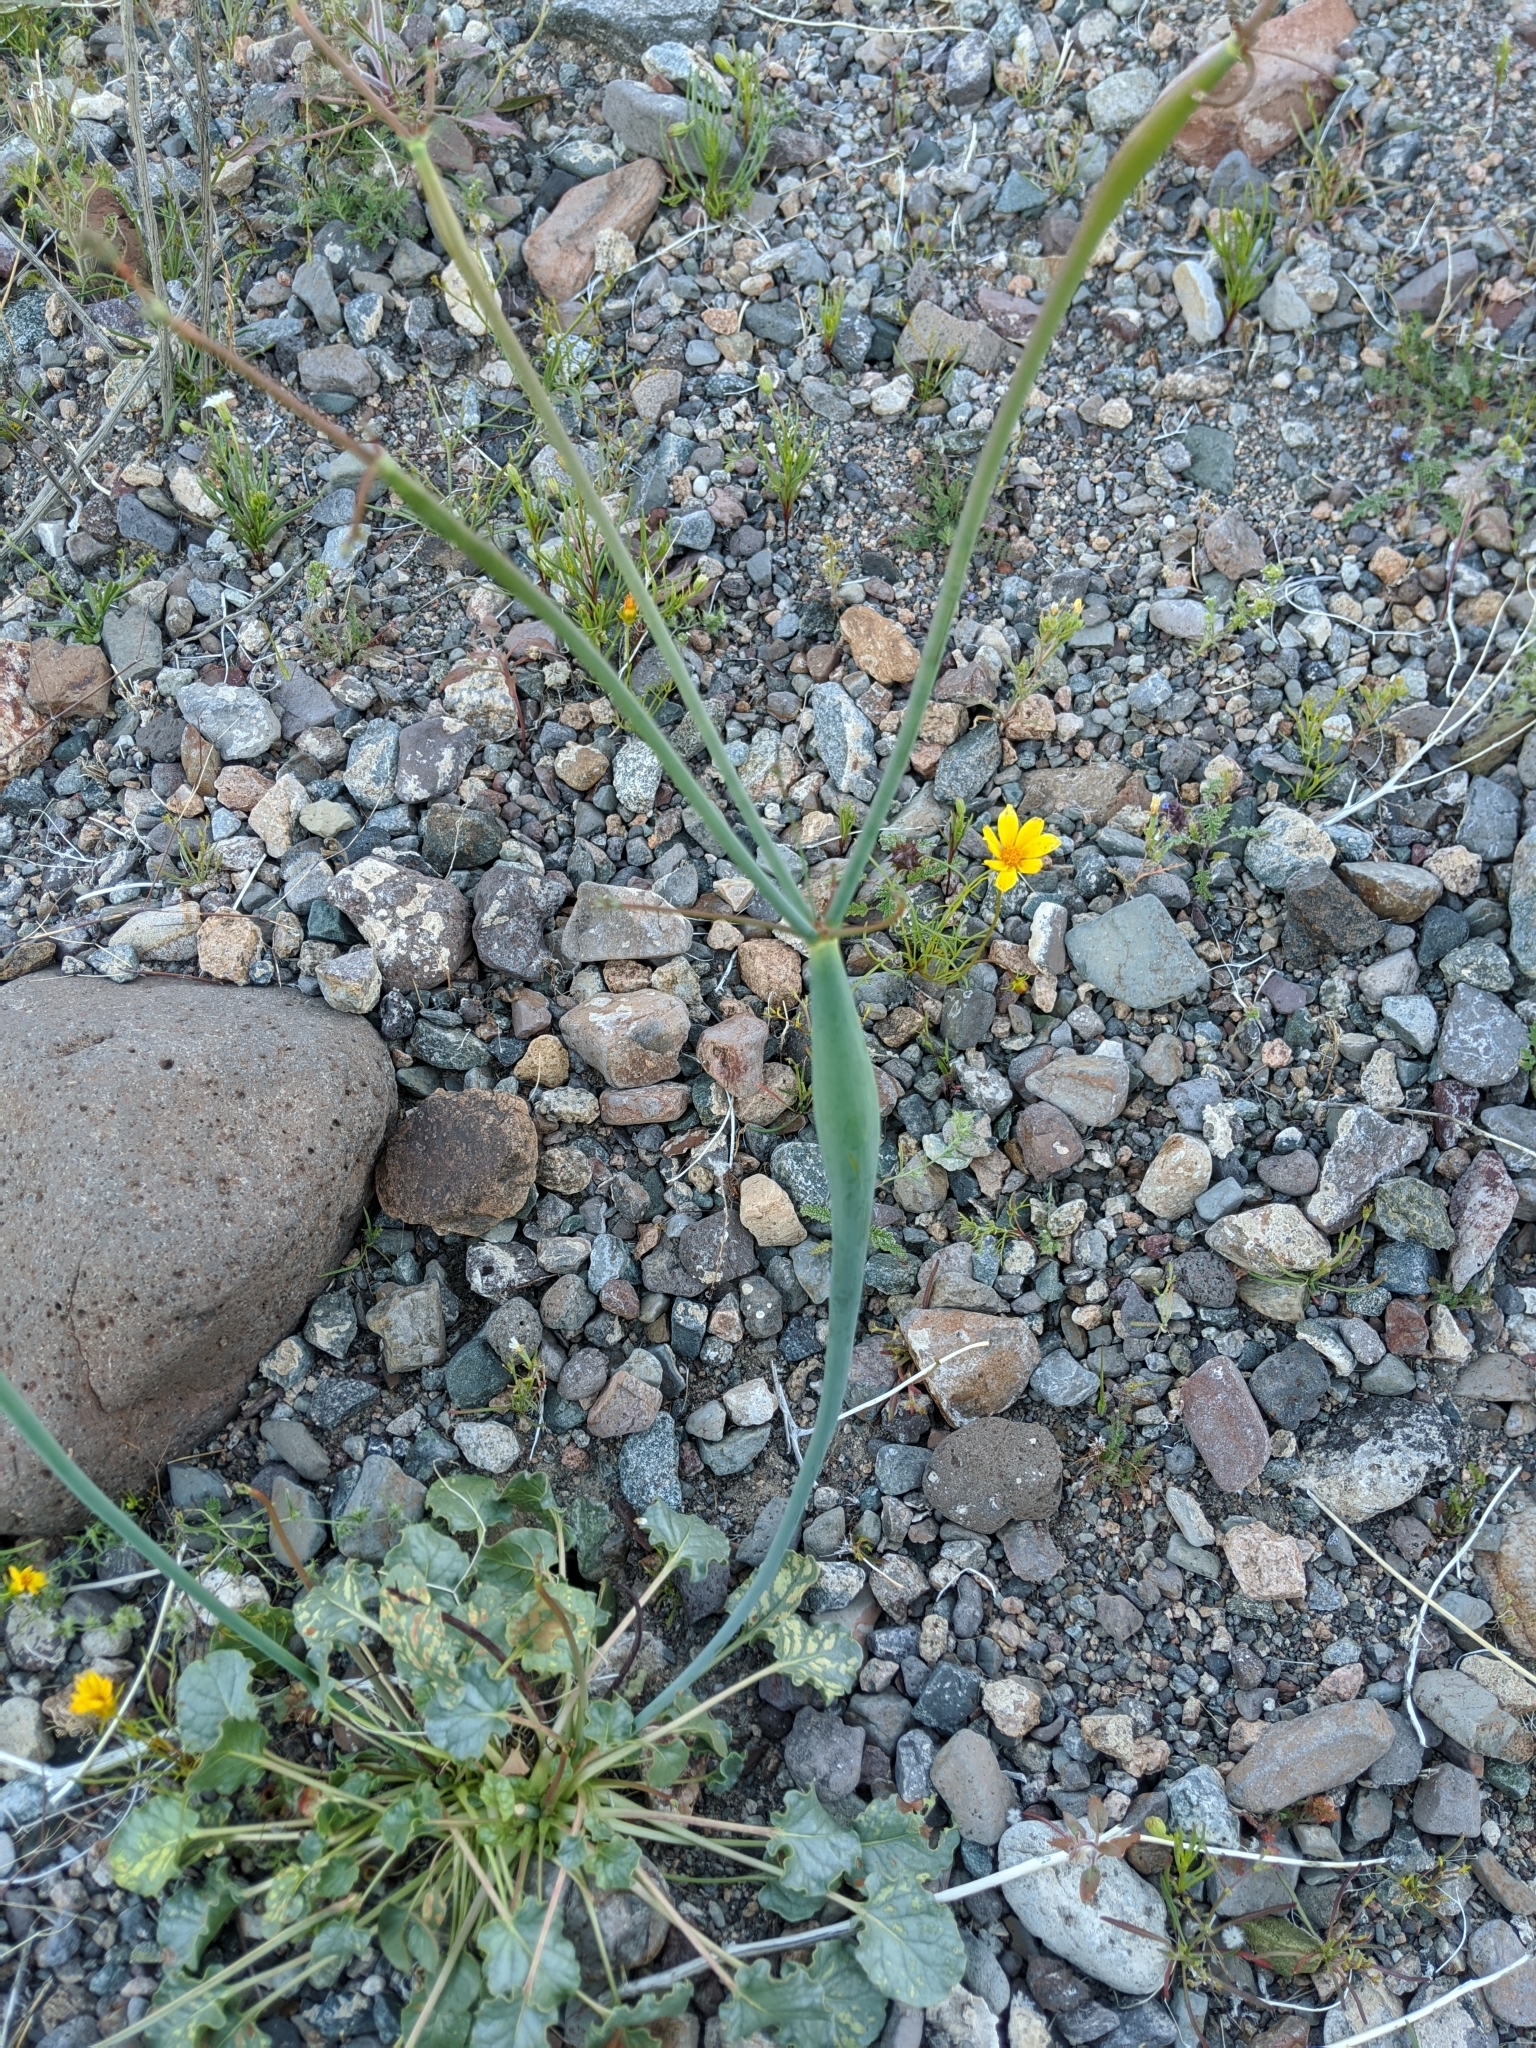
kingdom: Plantae
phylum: Tracheophyta
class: Magnoliopsida
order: Caryophyllales
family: Polygonaceae
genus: Eriogonum
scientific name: Eriogonum inflatum
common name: Desert trumpet
